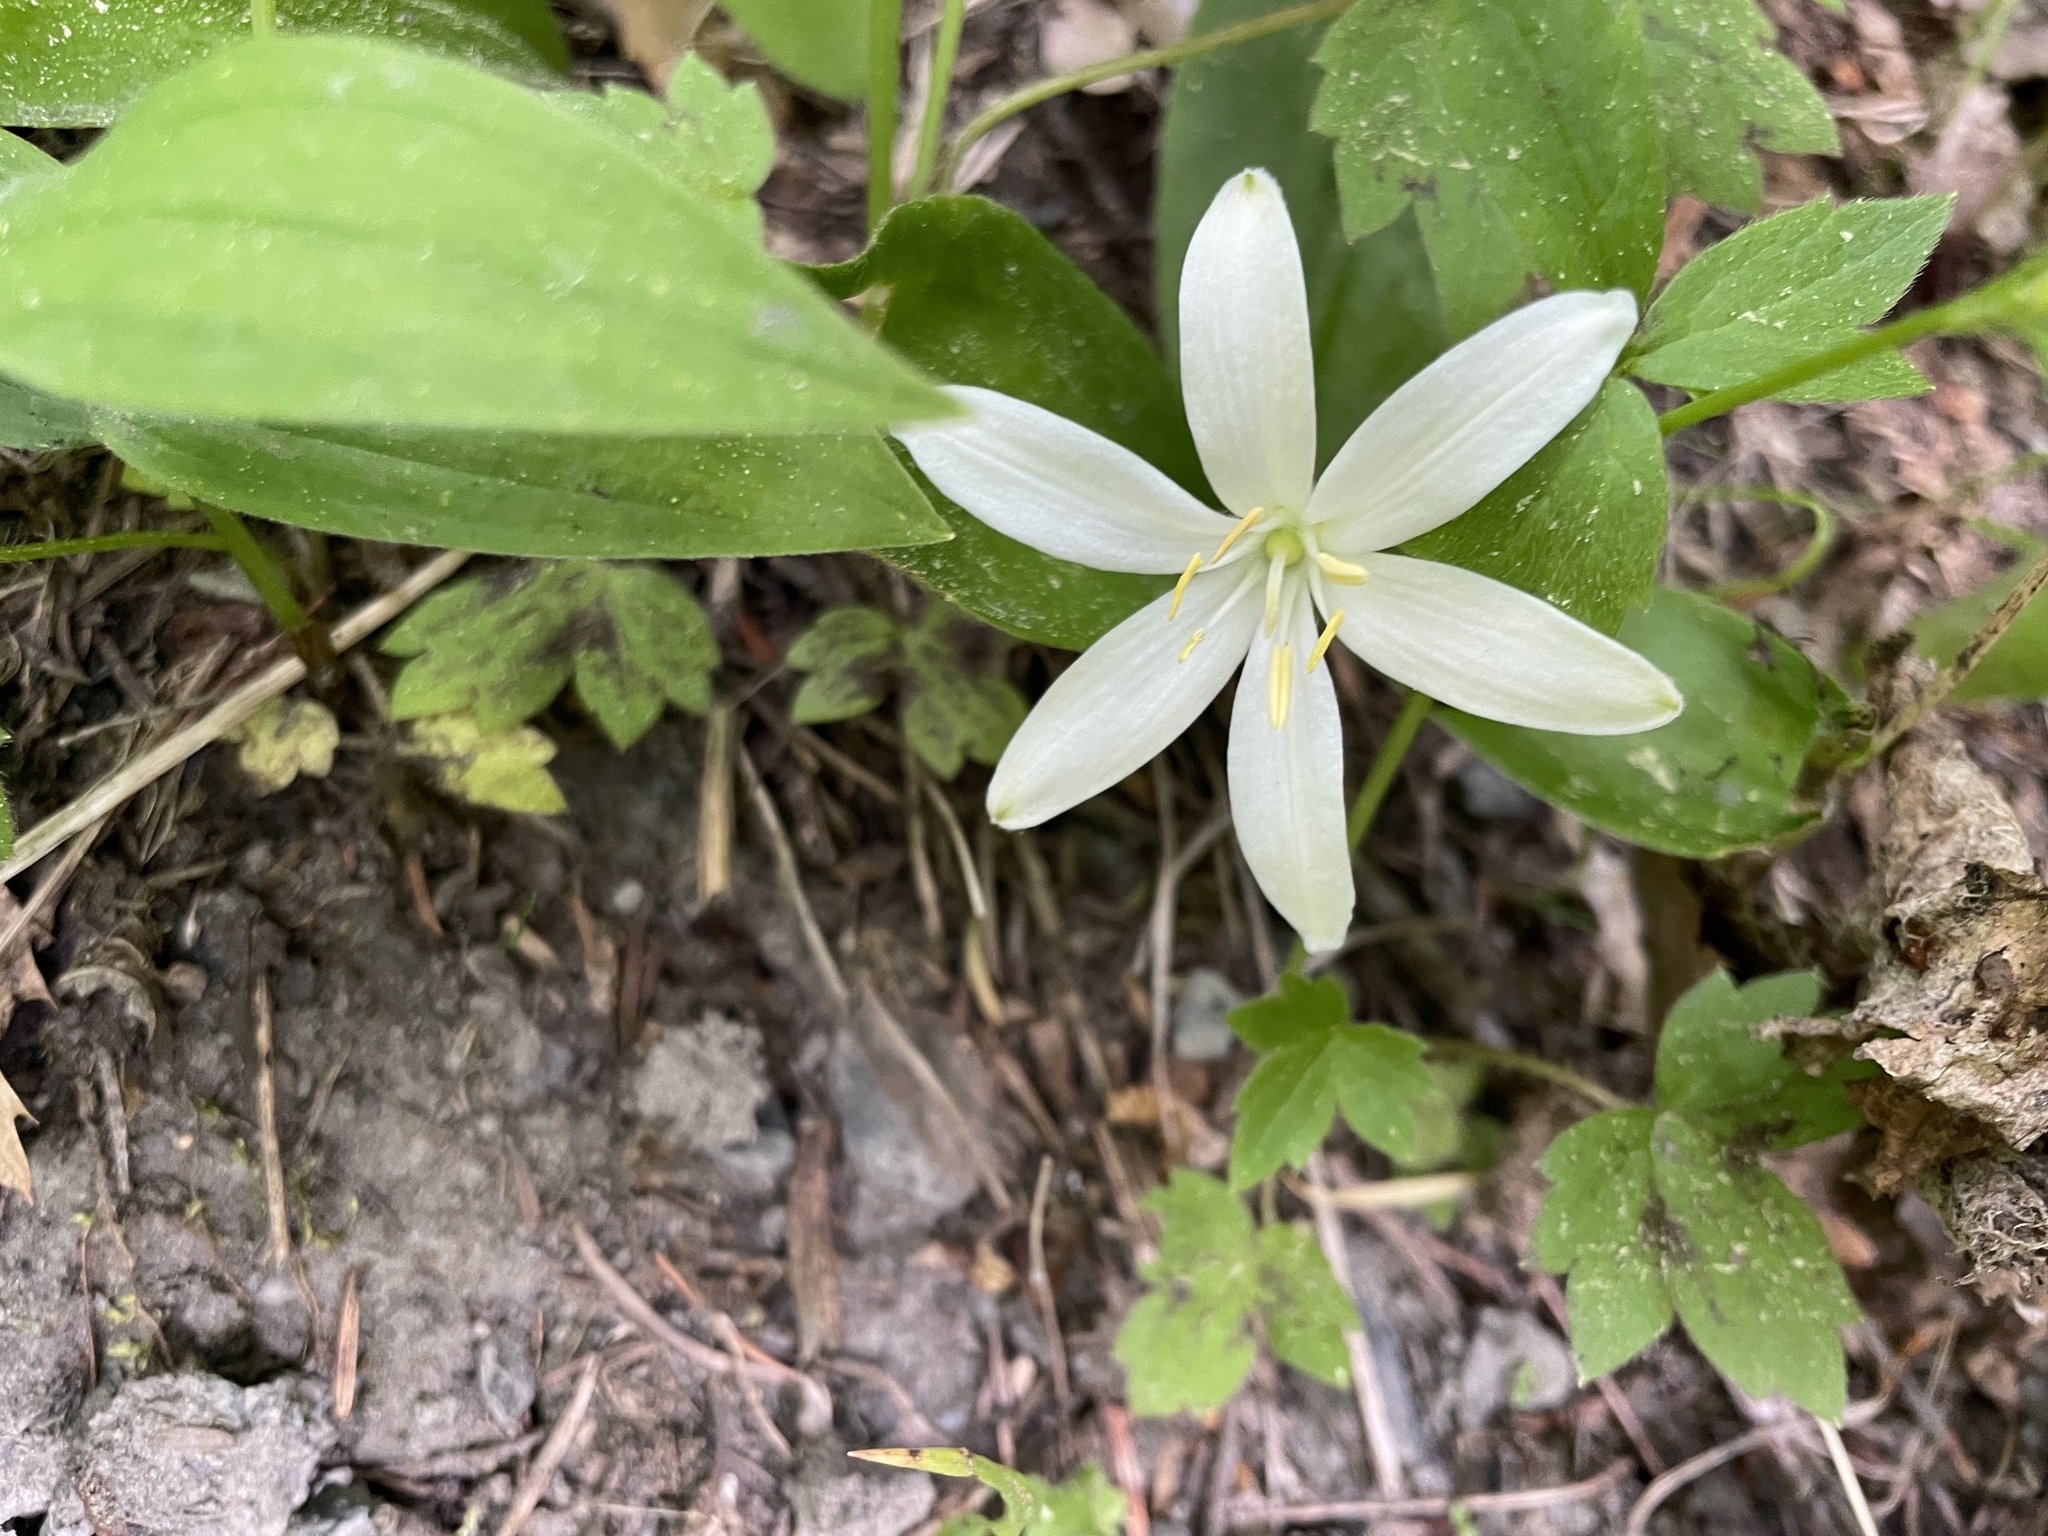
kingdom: Plantae
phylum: Tracheophyta
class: Liliopsida
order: Liliales
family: Liliaceae
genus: Clintonia
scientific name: Clintonia uniflora
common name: Queen's cup
